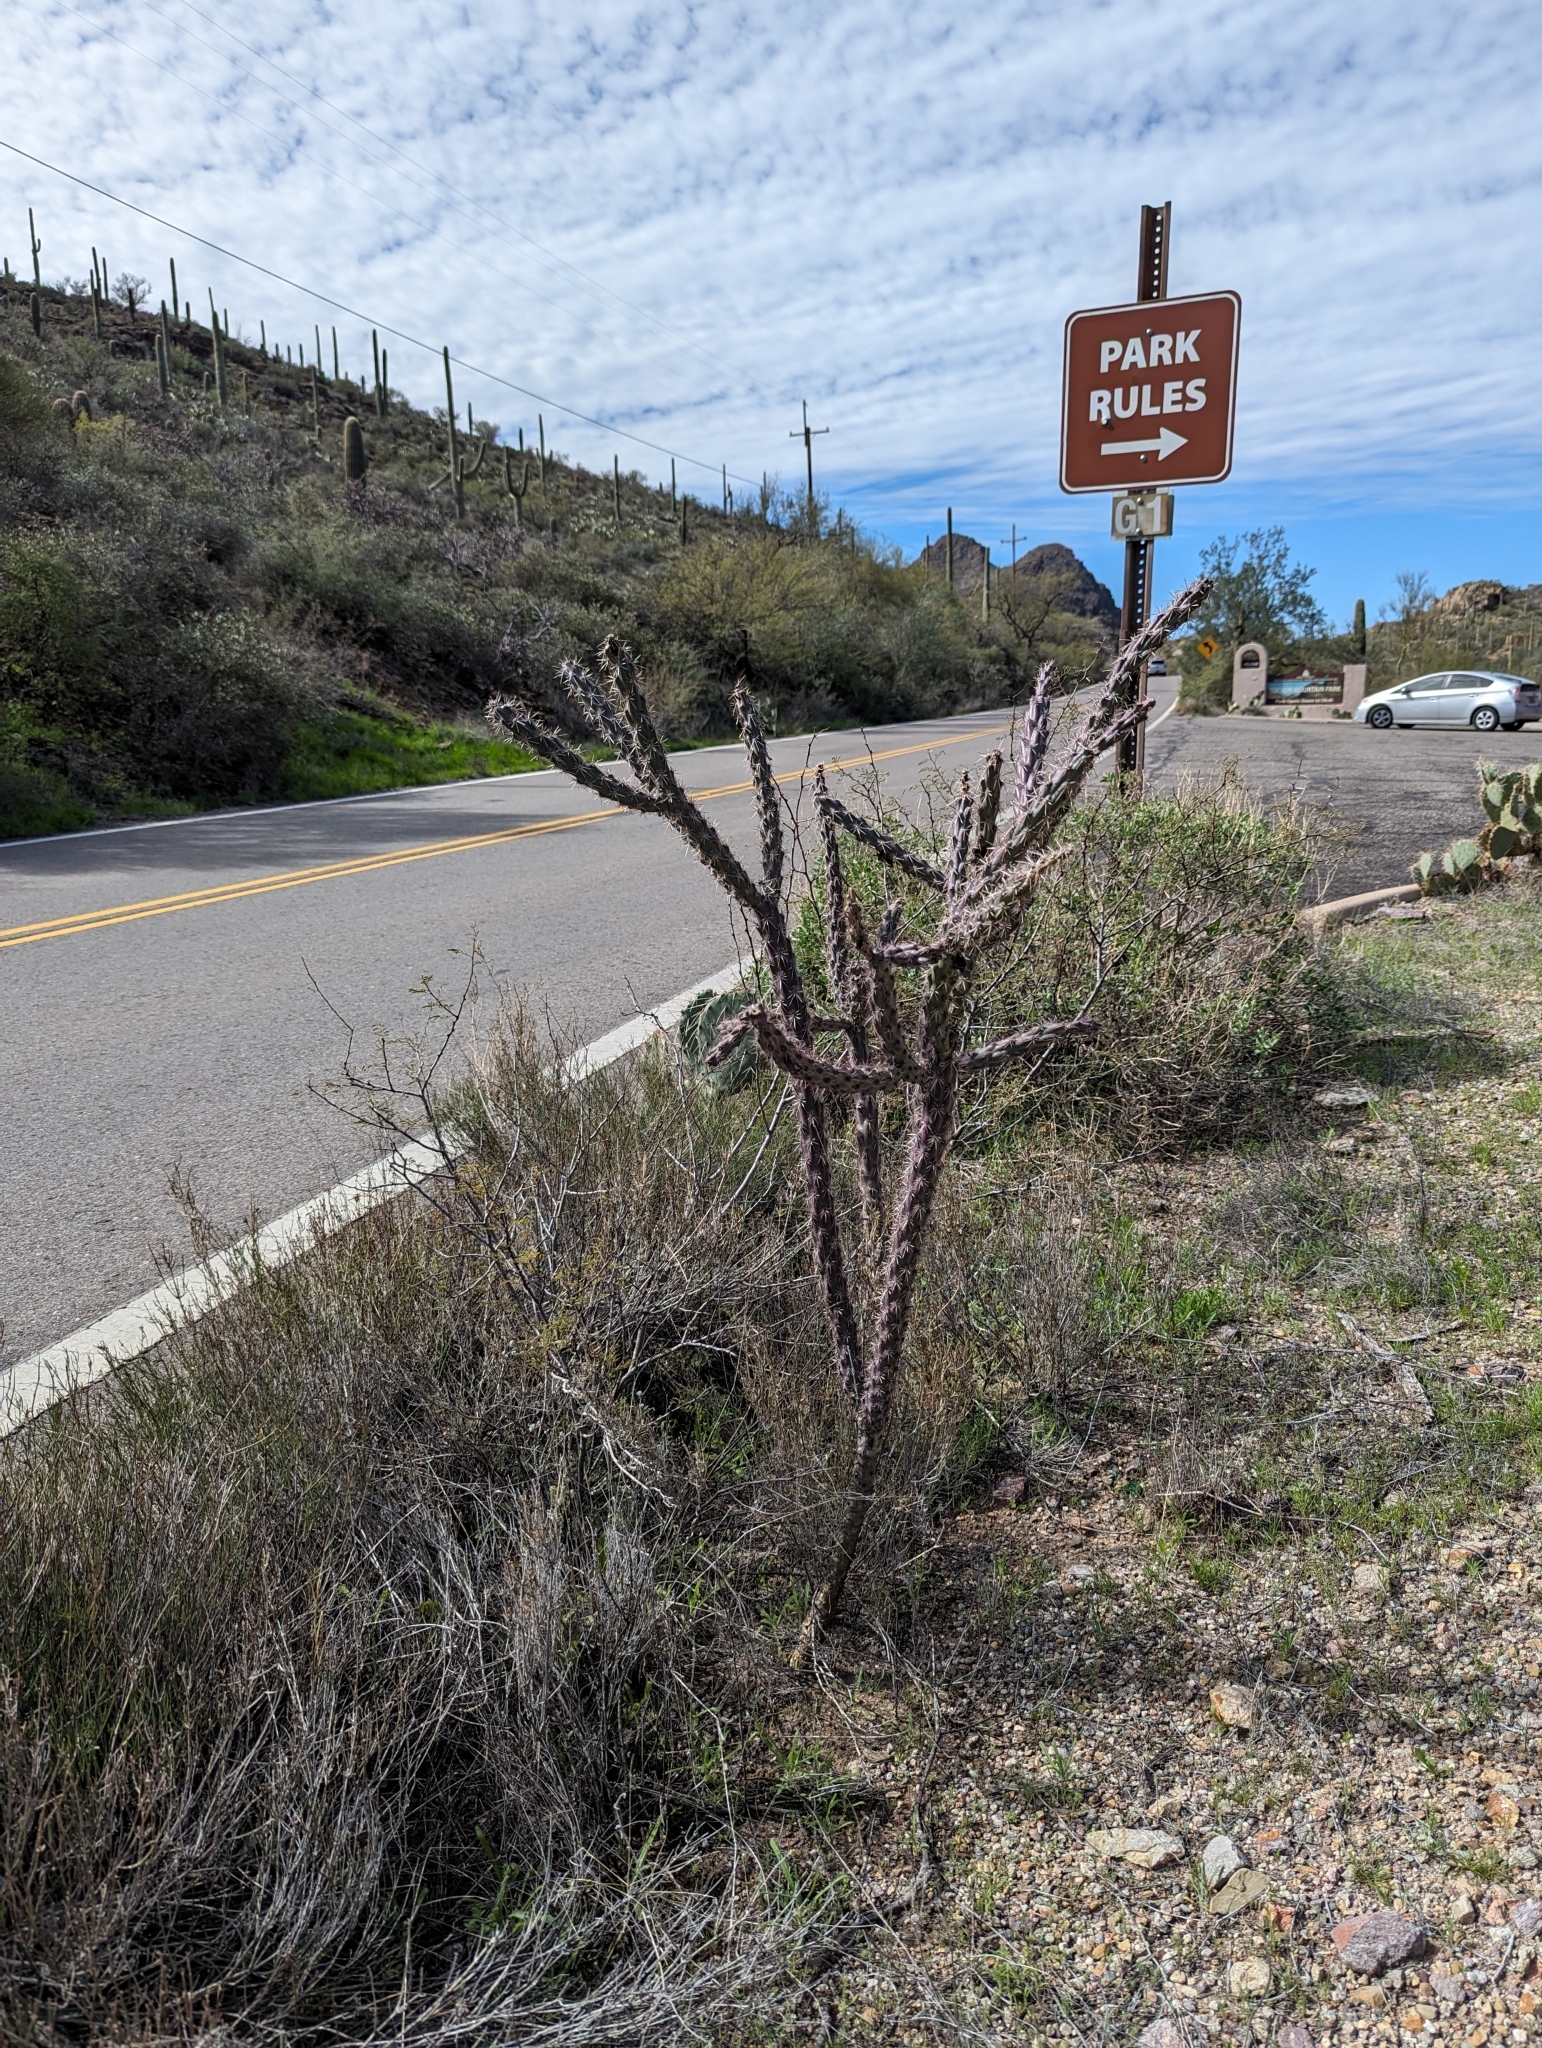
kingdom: Plantae
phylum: Tracheophyta
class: Magnoliopsida
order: Caryophyllales
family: Cactaceae
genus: Cylindropuntia
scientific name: Cylindropuntia acanthocarpa
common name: Buckhorn cholla
